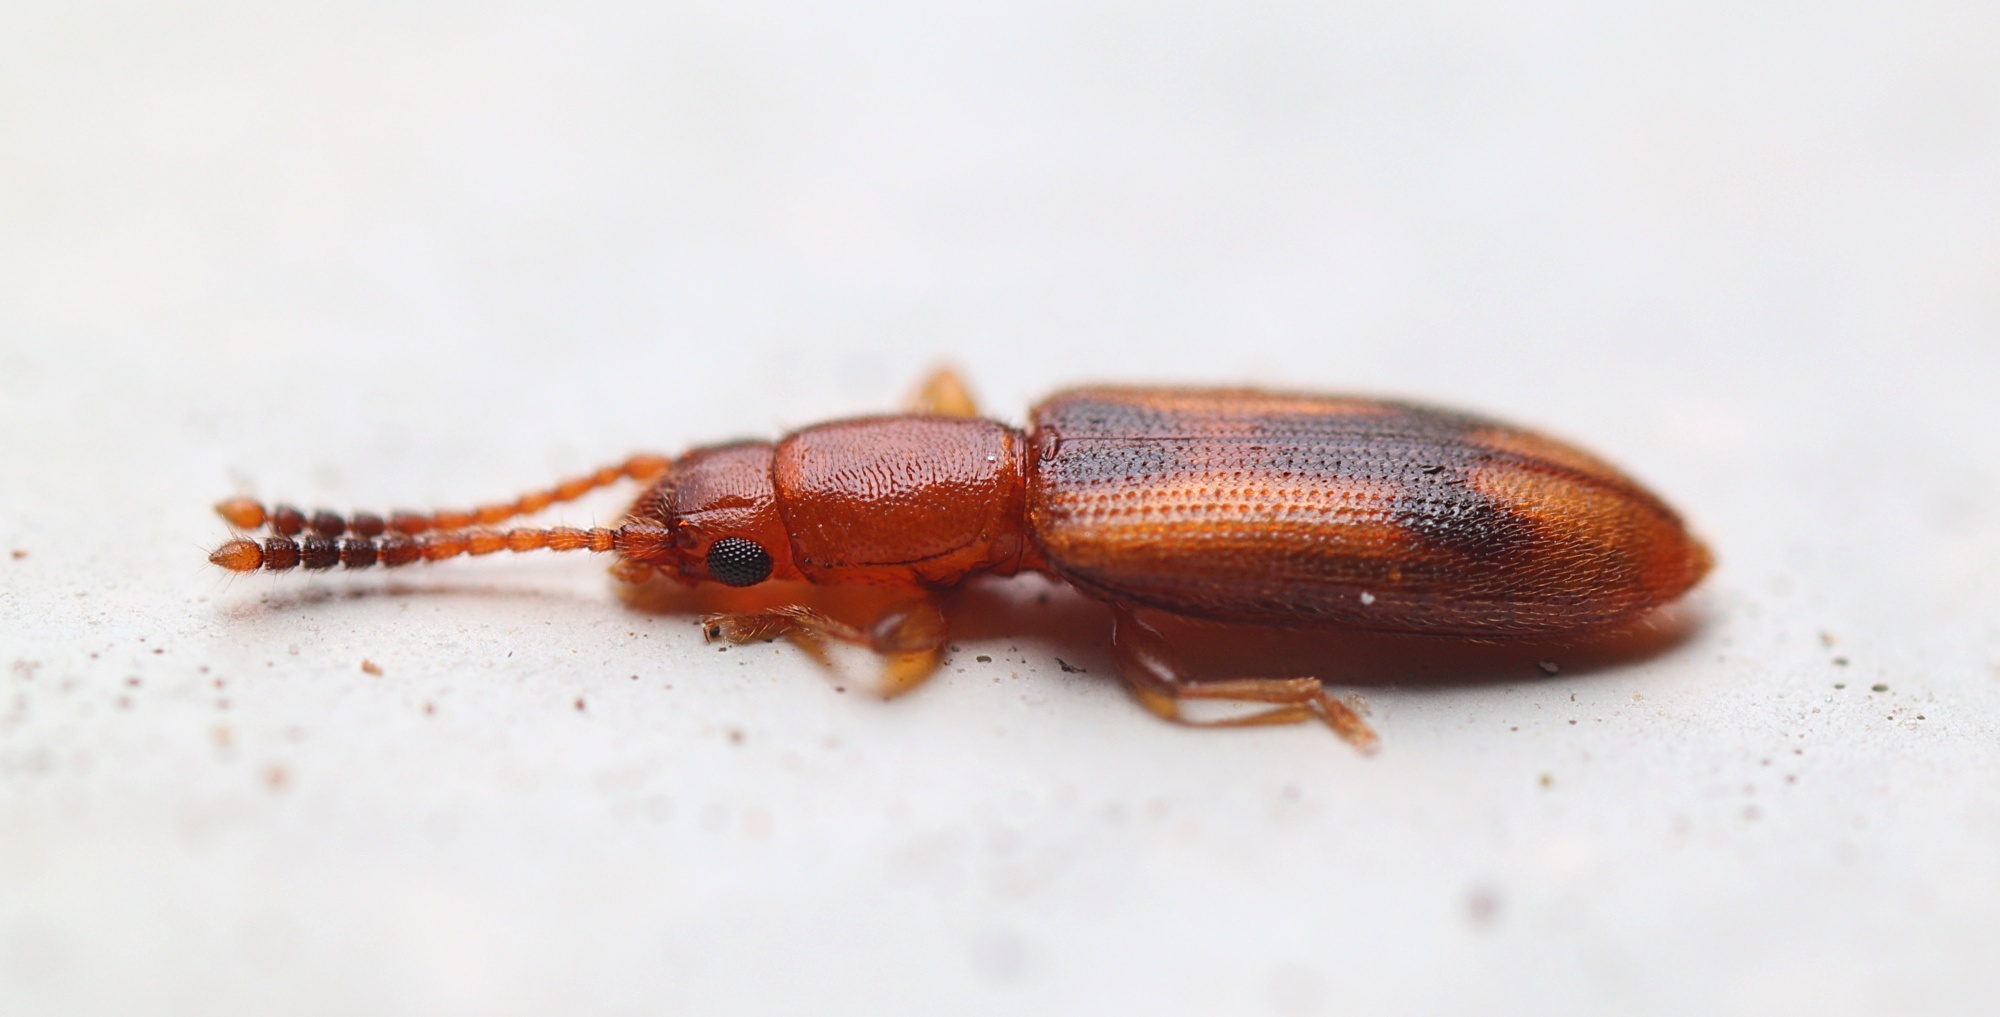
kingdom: Animalia
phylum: Arthropoda
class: Insecta
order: Coleoptera
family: Silvanidae
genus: Cryptamorpha
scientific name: Cryptamorpha desjardinsi
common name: Cryptamorpha
